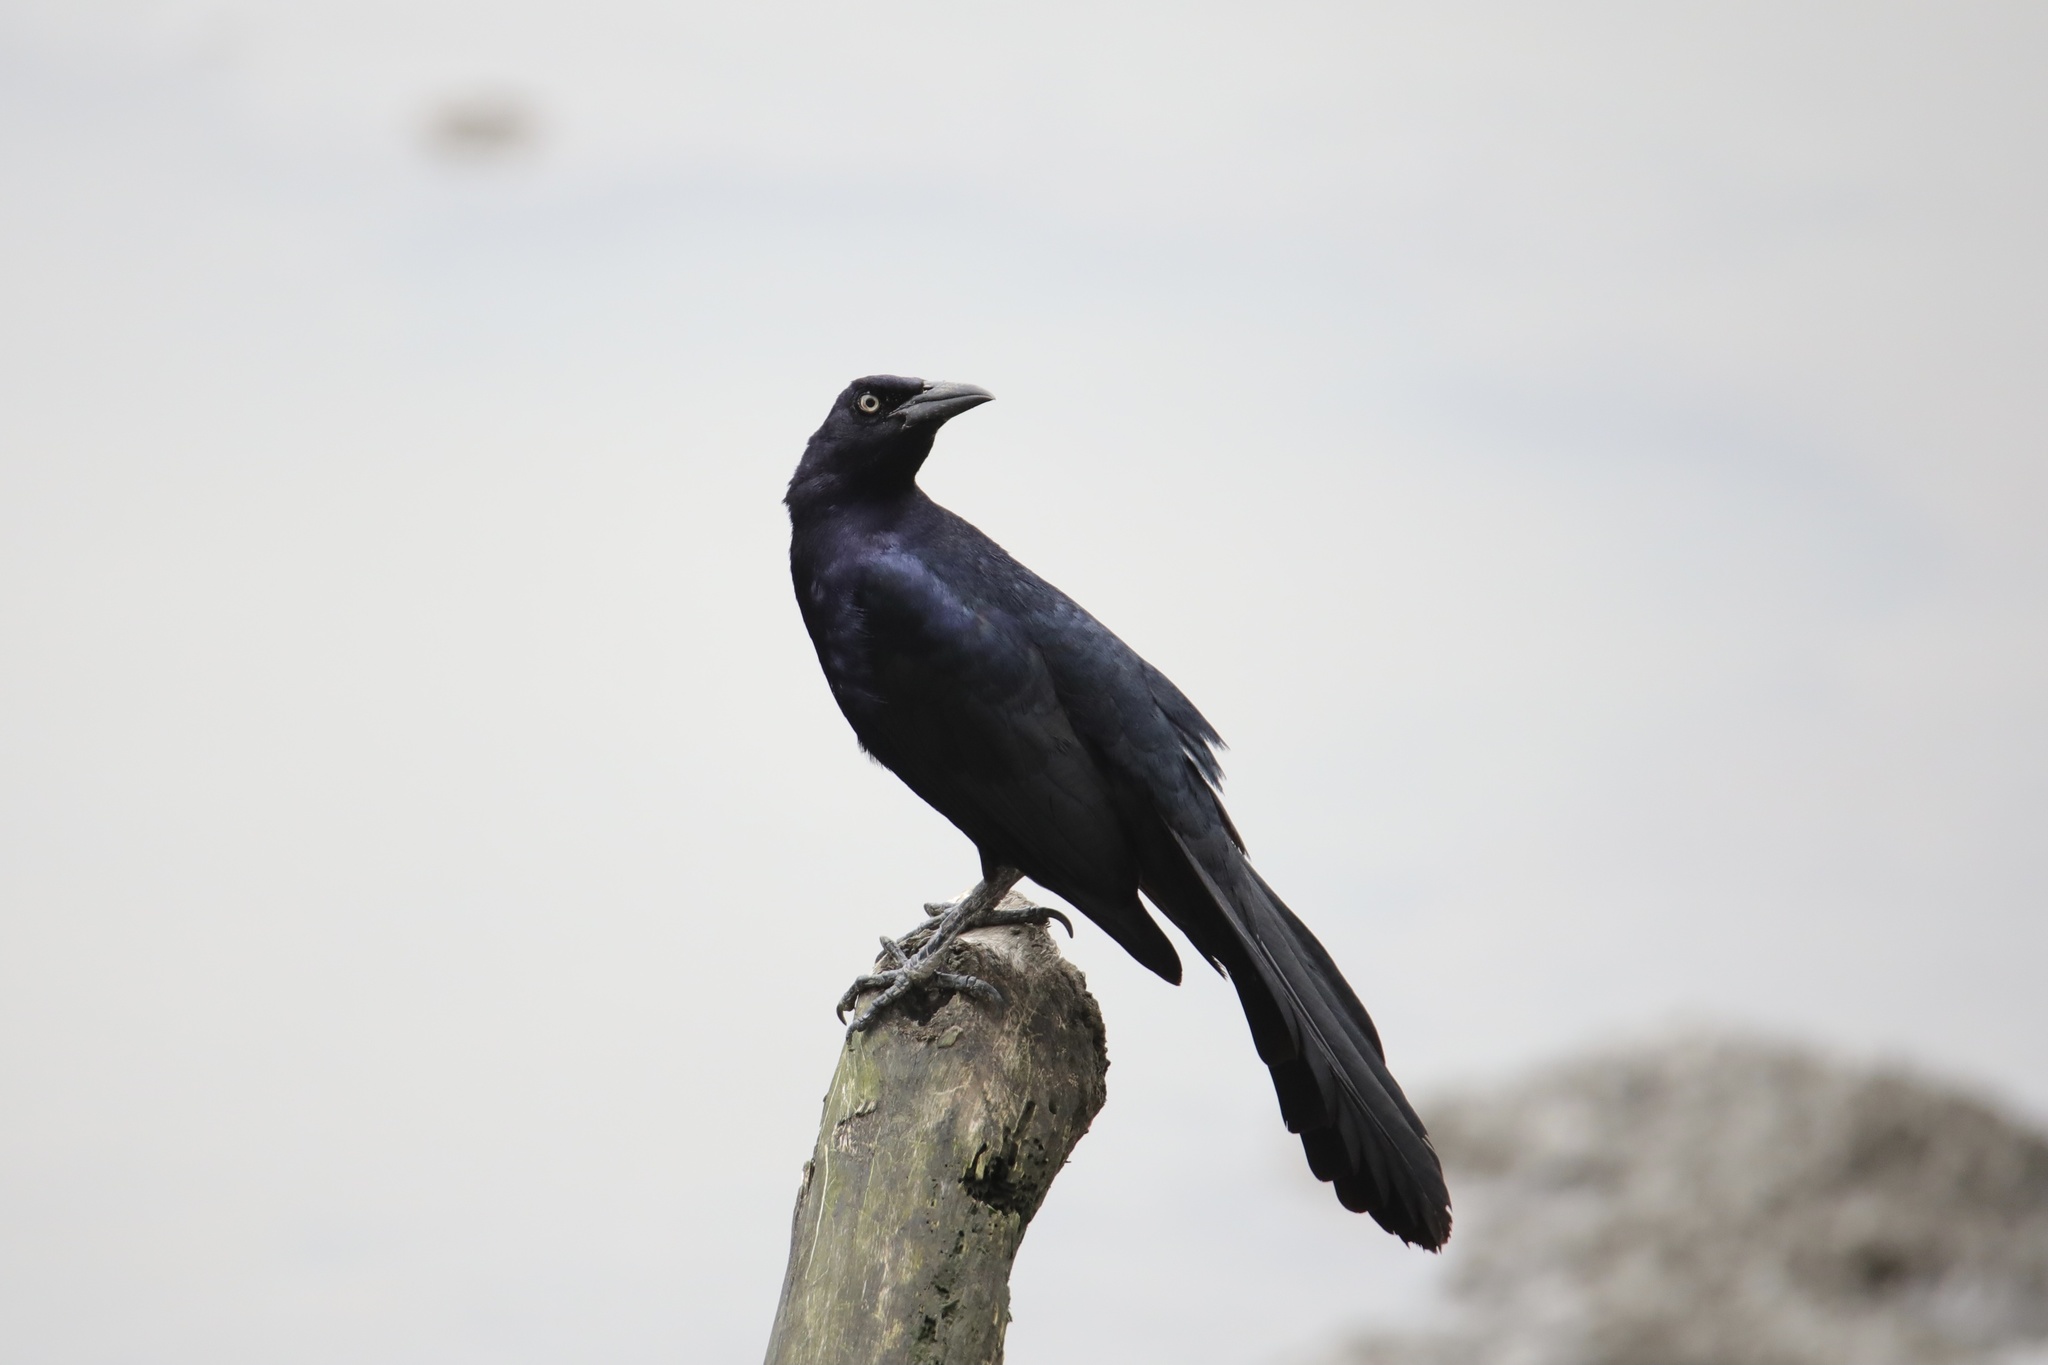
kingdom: Animalia
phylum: Chordata
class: Aves
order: Passeriformes
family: Icteridae
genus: Quiscalus
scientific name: Quiscalus mexicanus
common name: Great-tailed grackle
